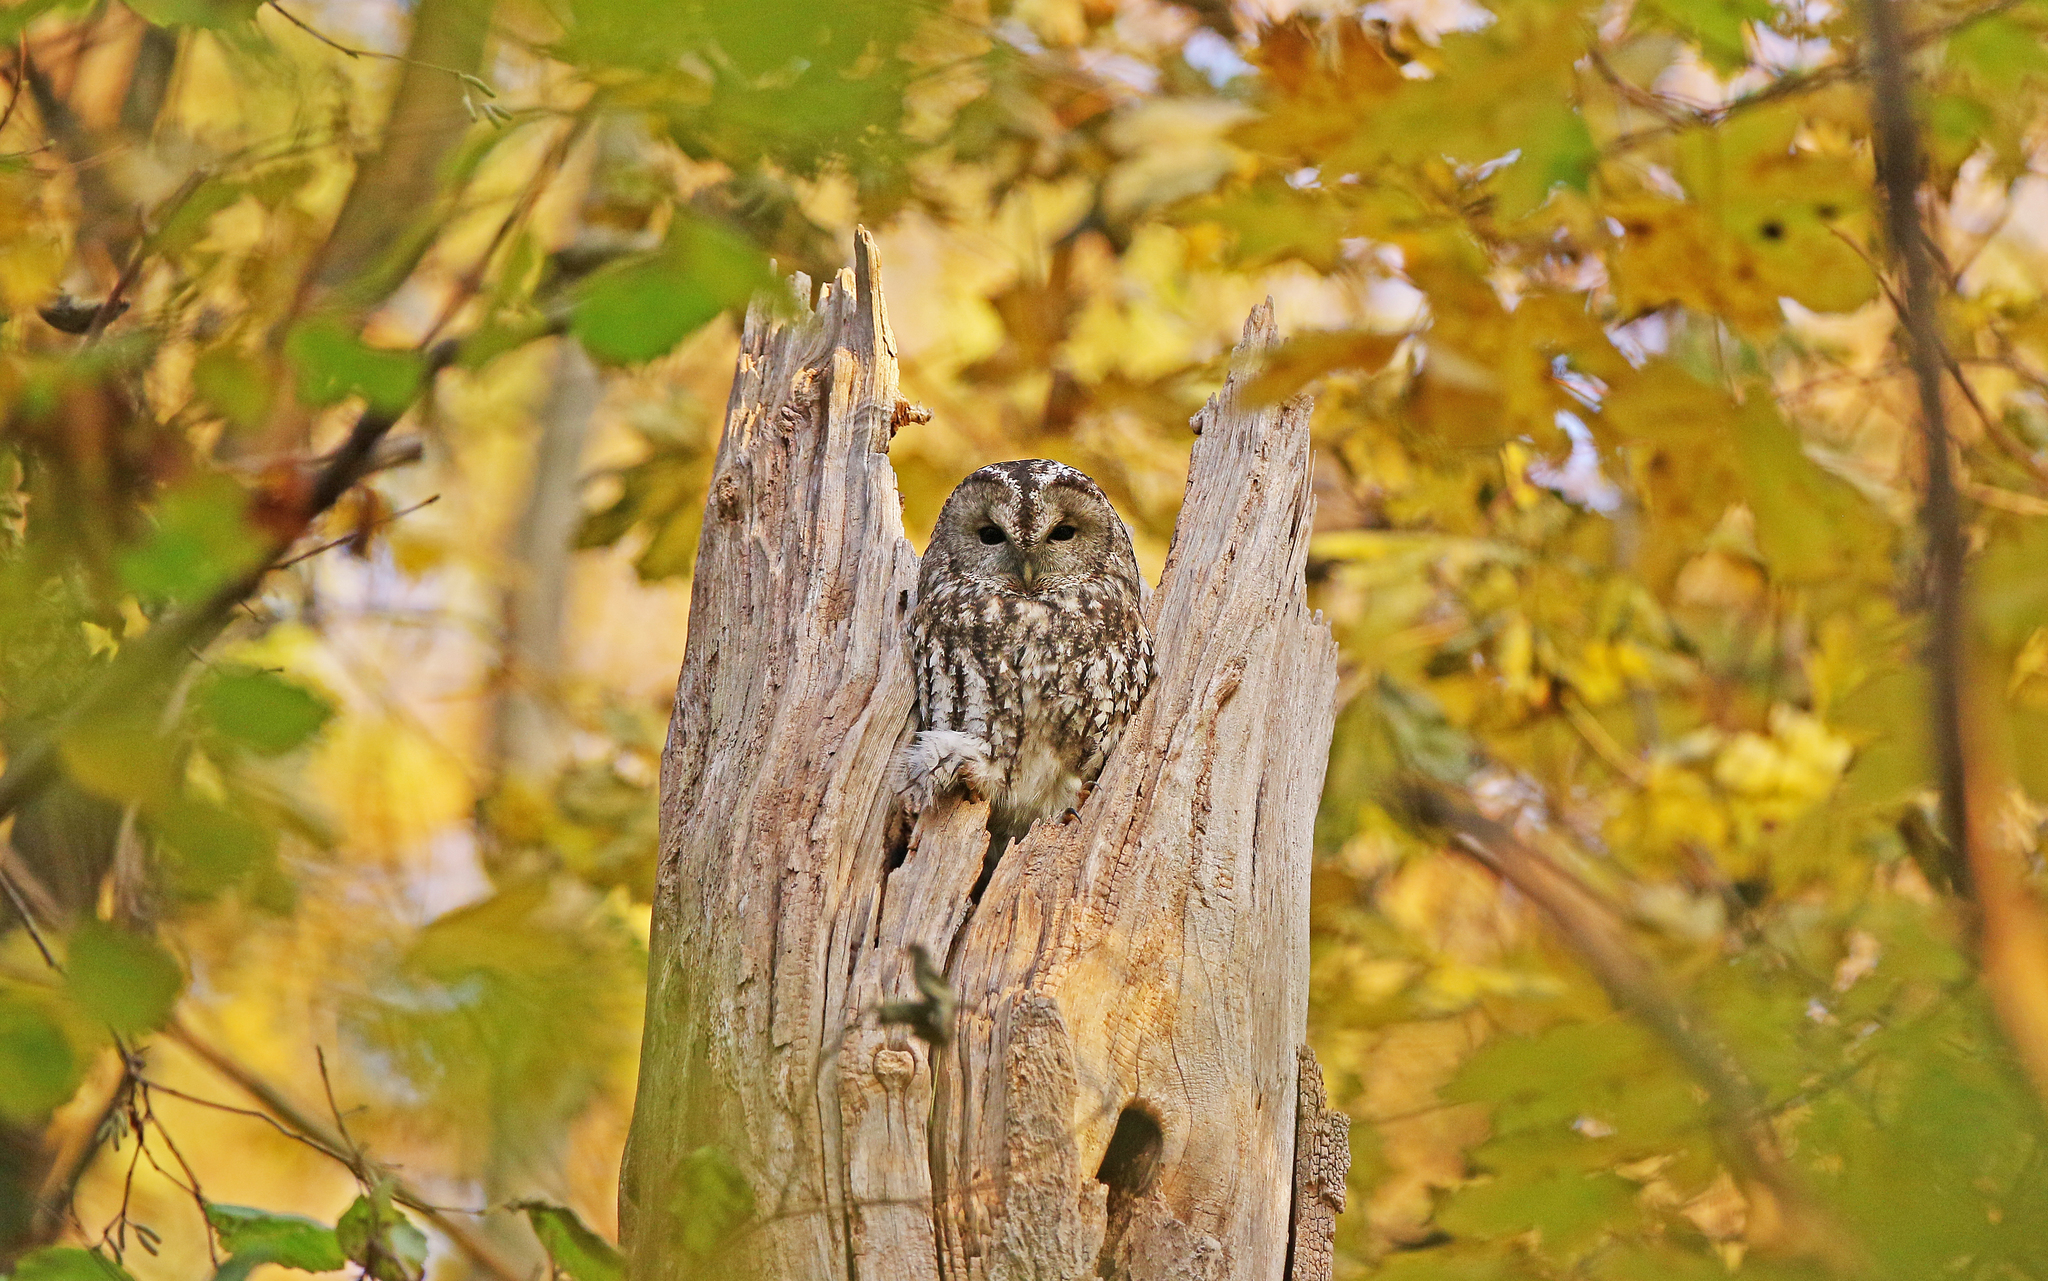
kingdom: Animalia
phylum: Chordata
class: Aves
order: Strigiformes
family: Strigidae
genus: Strix
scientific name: Strix aluco
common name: Tawny owl
